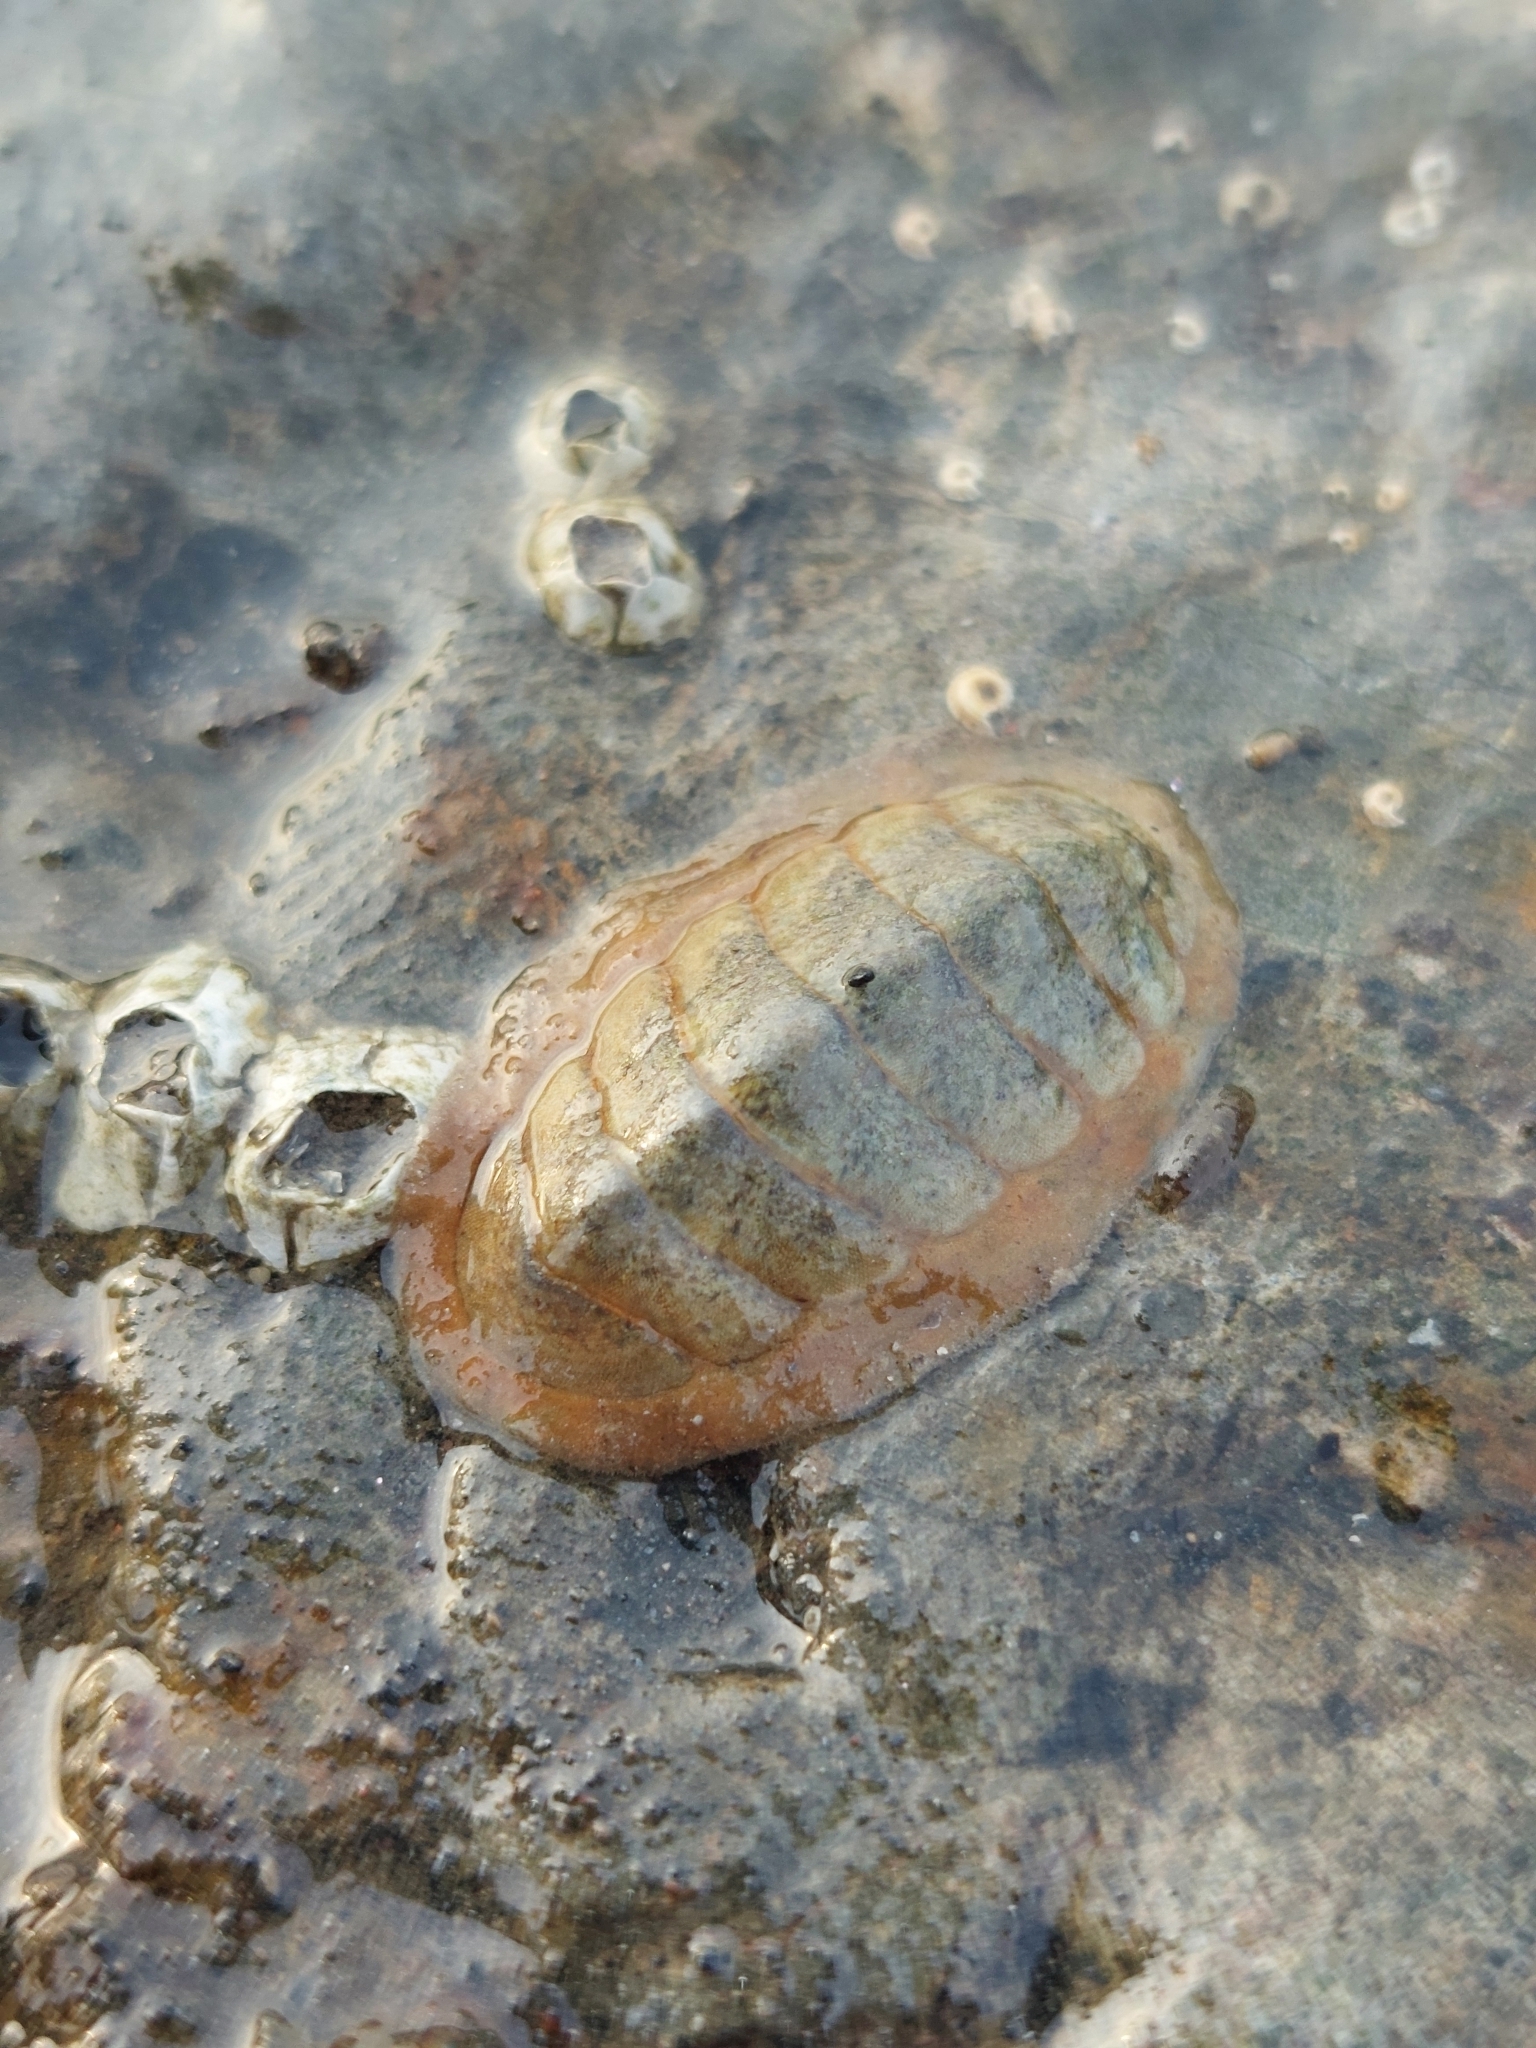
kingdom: Animalia
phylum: Mollusca
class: Polyplacophora
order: Chitonida
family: Tonicellidae
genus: Lepidochitona
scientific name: Lepidochitona cinerea
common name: Cinereous chiton
